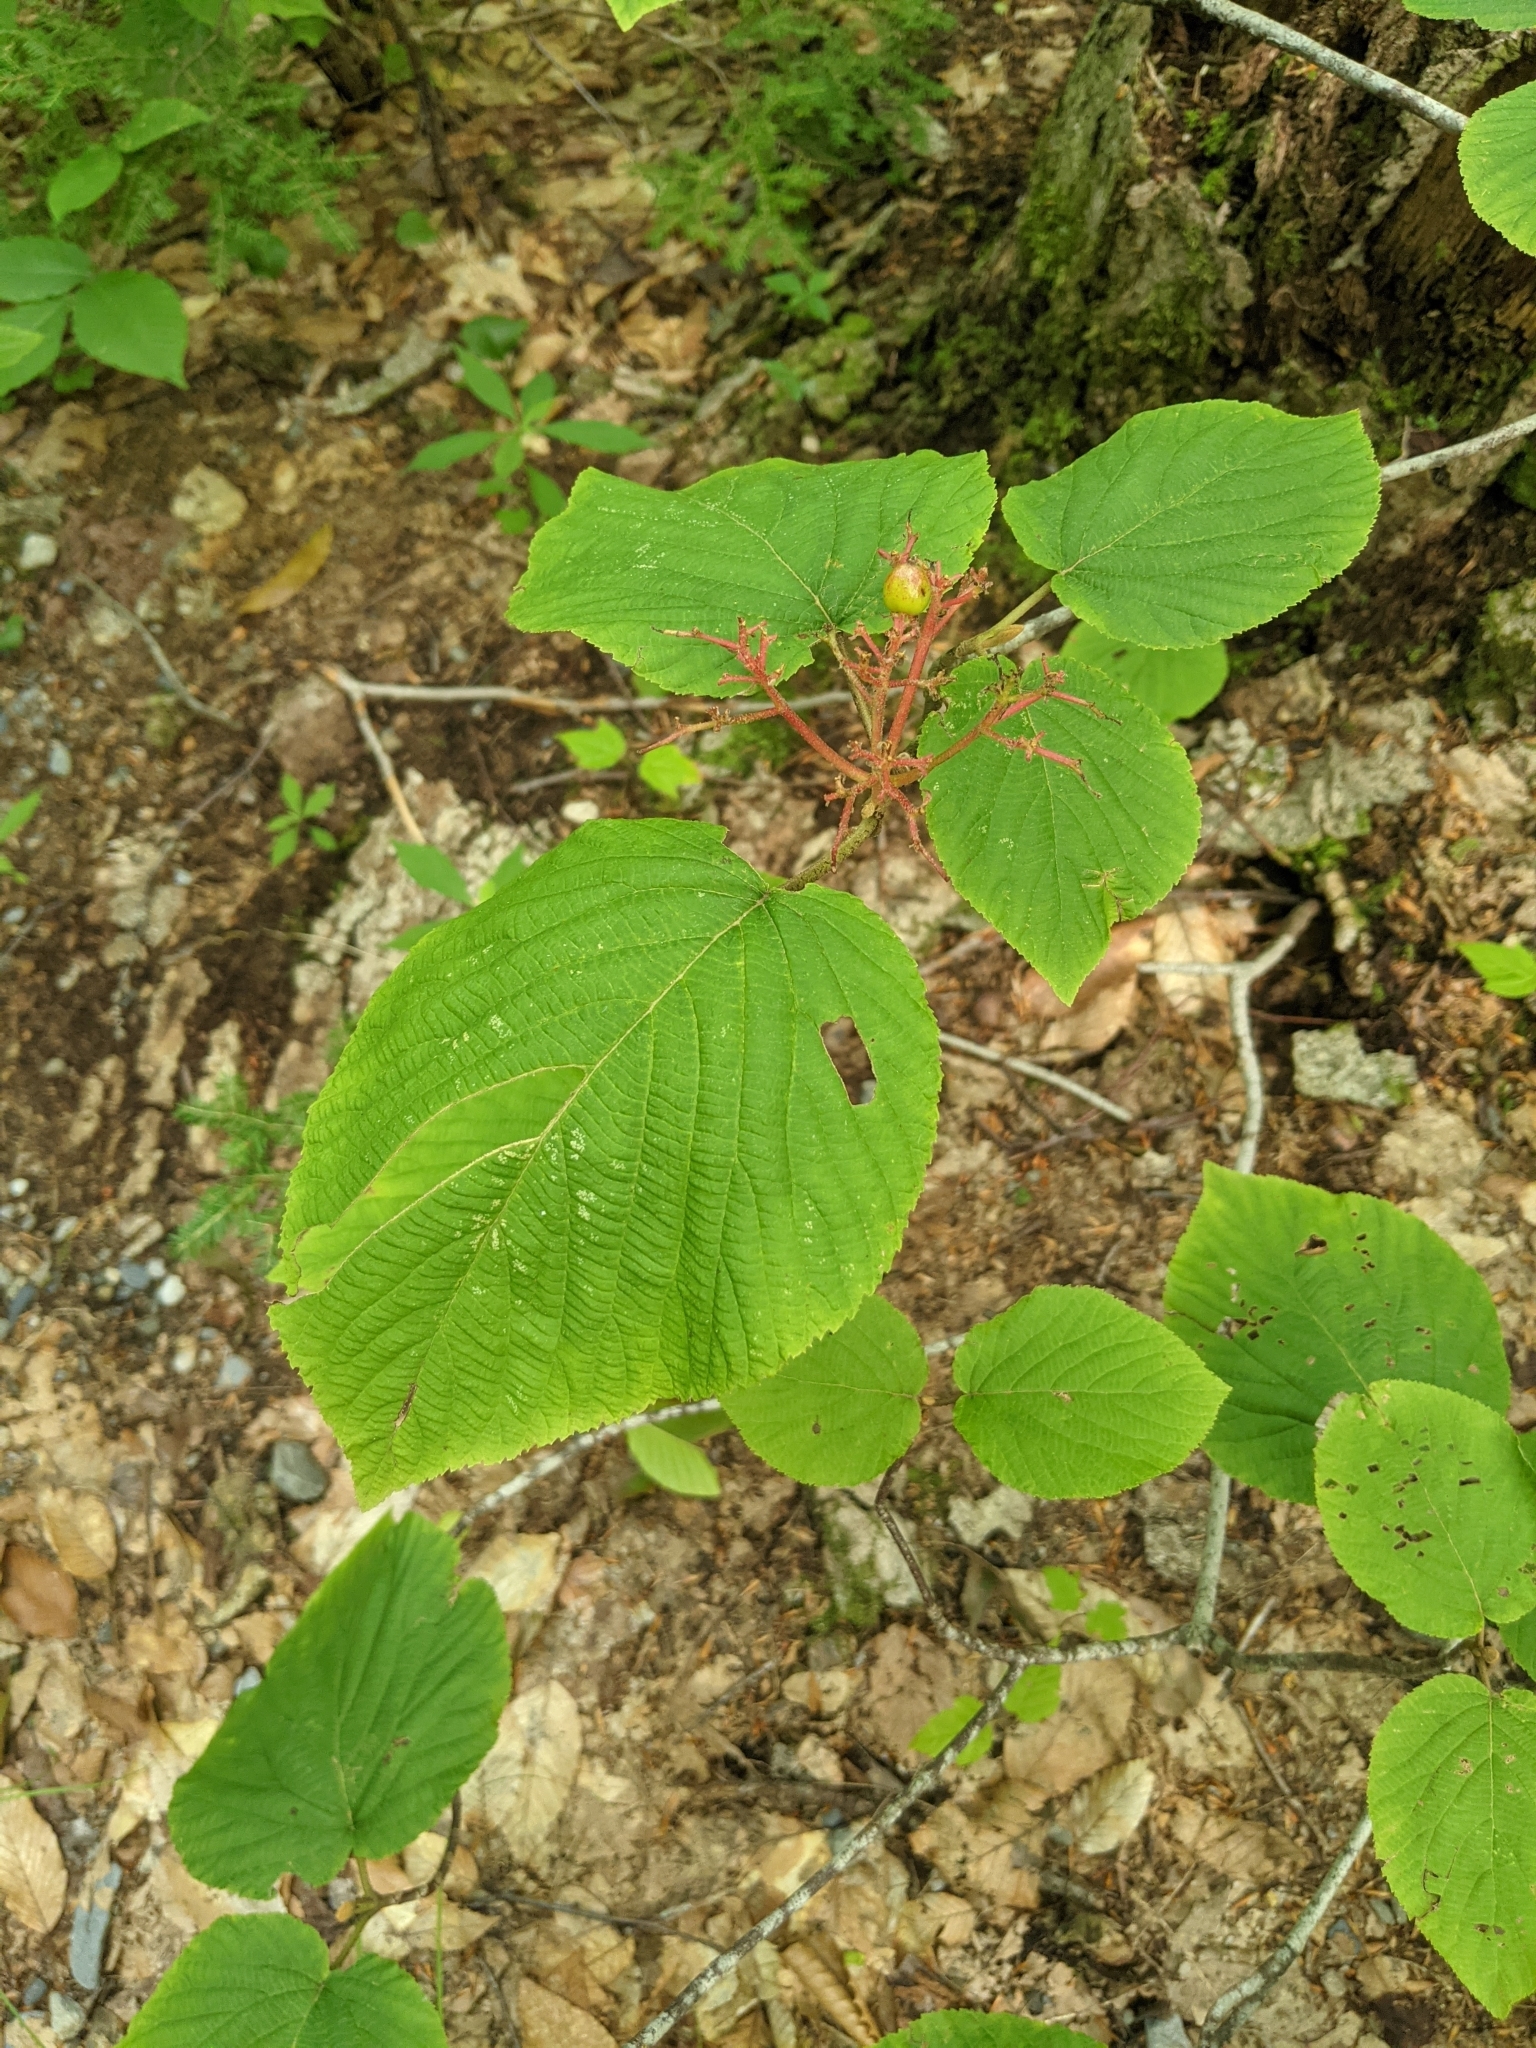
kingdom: Plantae
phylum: Tracheophyta
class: Magnoliopsida
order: Dipsacales
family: Viburnaceae
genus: Viburnum
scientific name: Viburnum lantanoides
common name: Hobblebush
